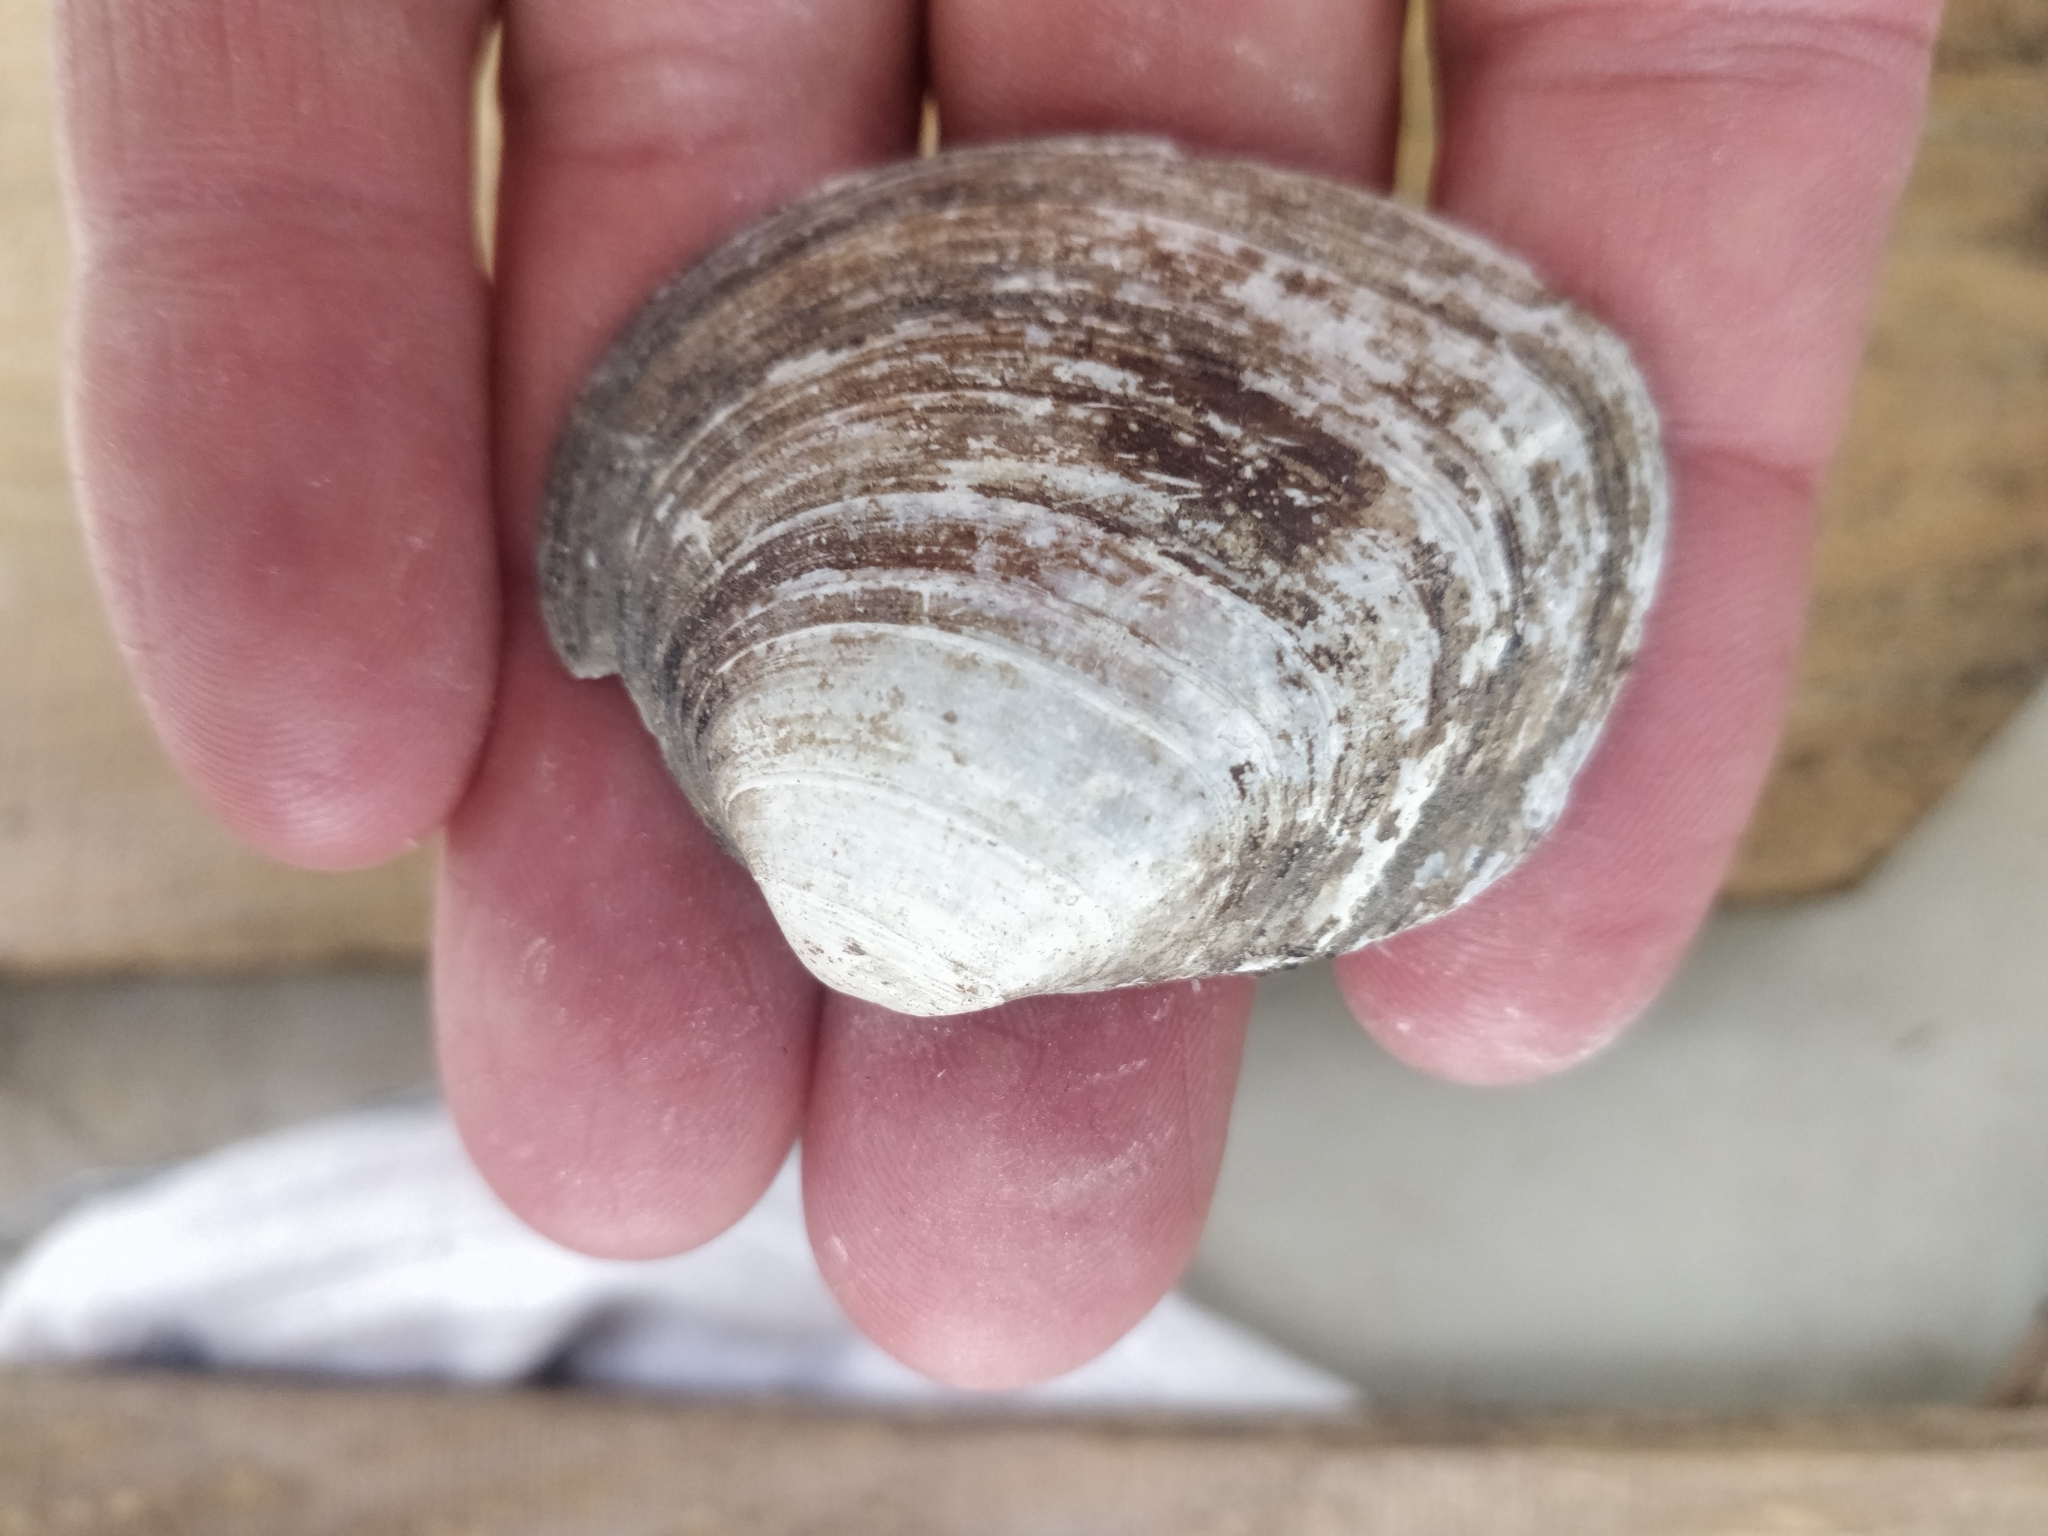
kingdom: Animalia
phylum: Mollusca
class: Bivalvia
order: Unionida
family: Unionidae
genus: Fusconaia
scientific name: Fusconaia flava
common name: Wabash pigtoe
